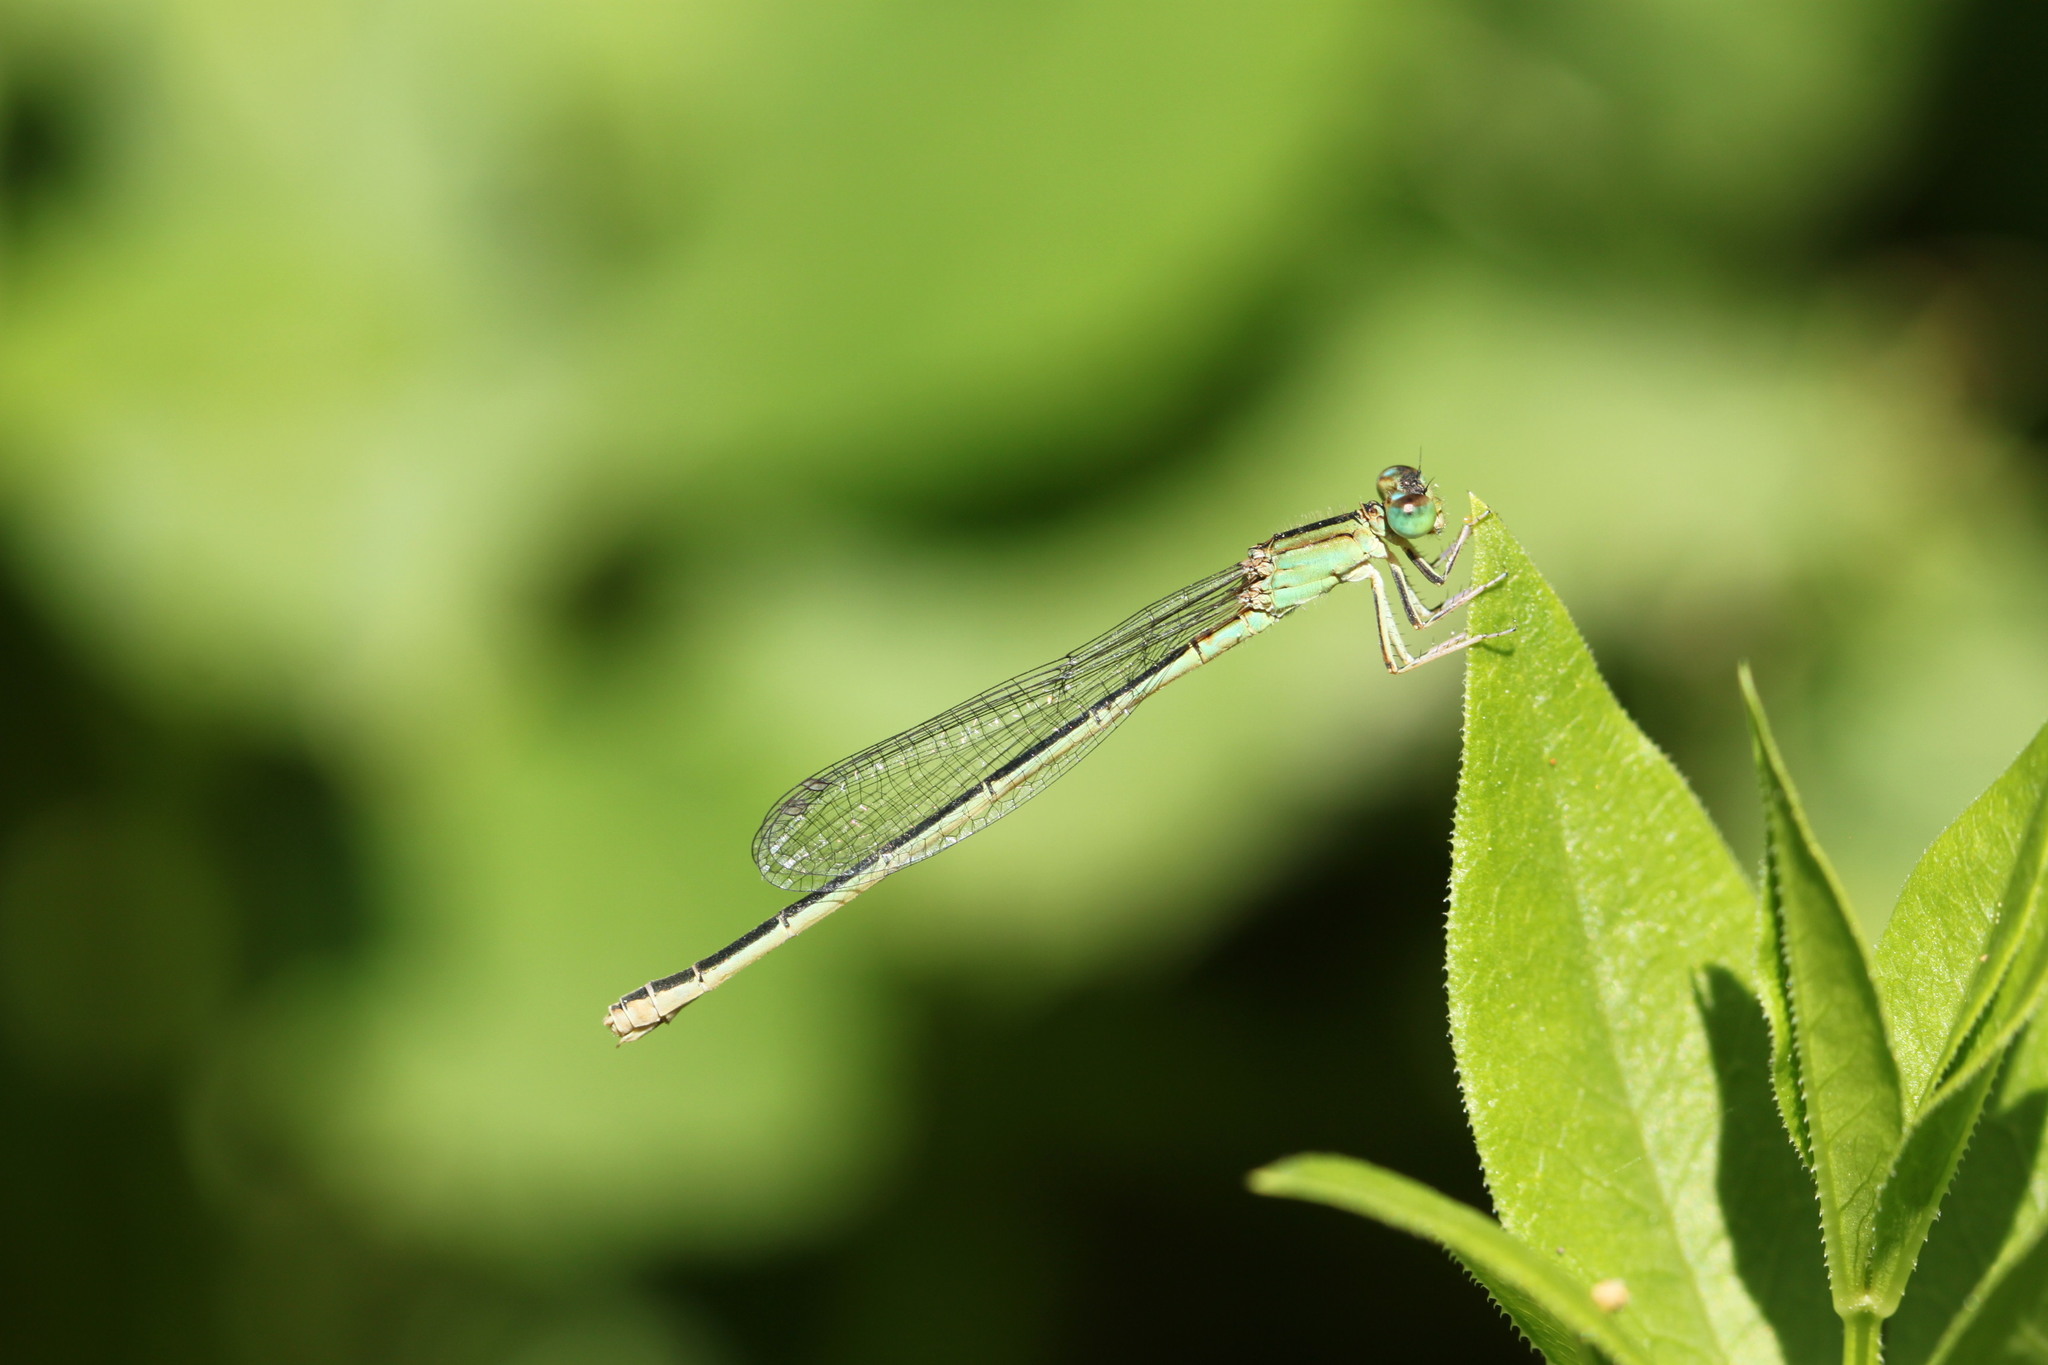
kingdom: Animalia
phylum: Arthropoda
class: Insecta
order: Odonata
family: Coenagrionidae
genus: Ischnura
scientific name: Ischnura intermedia
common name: Dumont's bluetail
